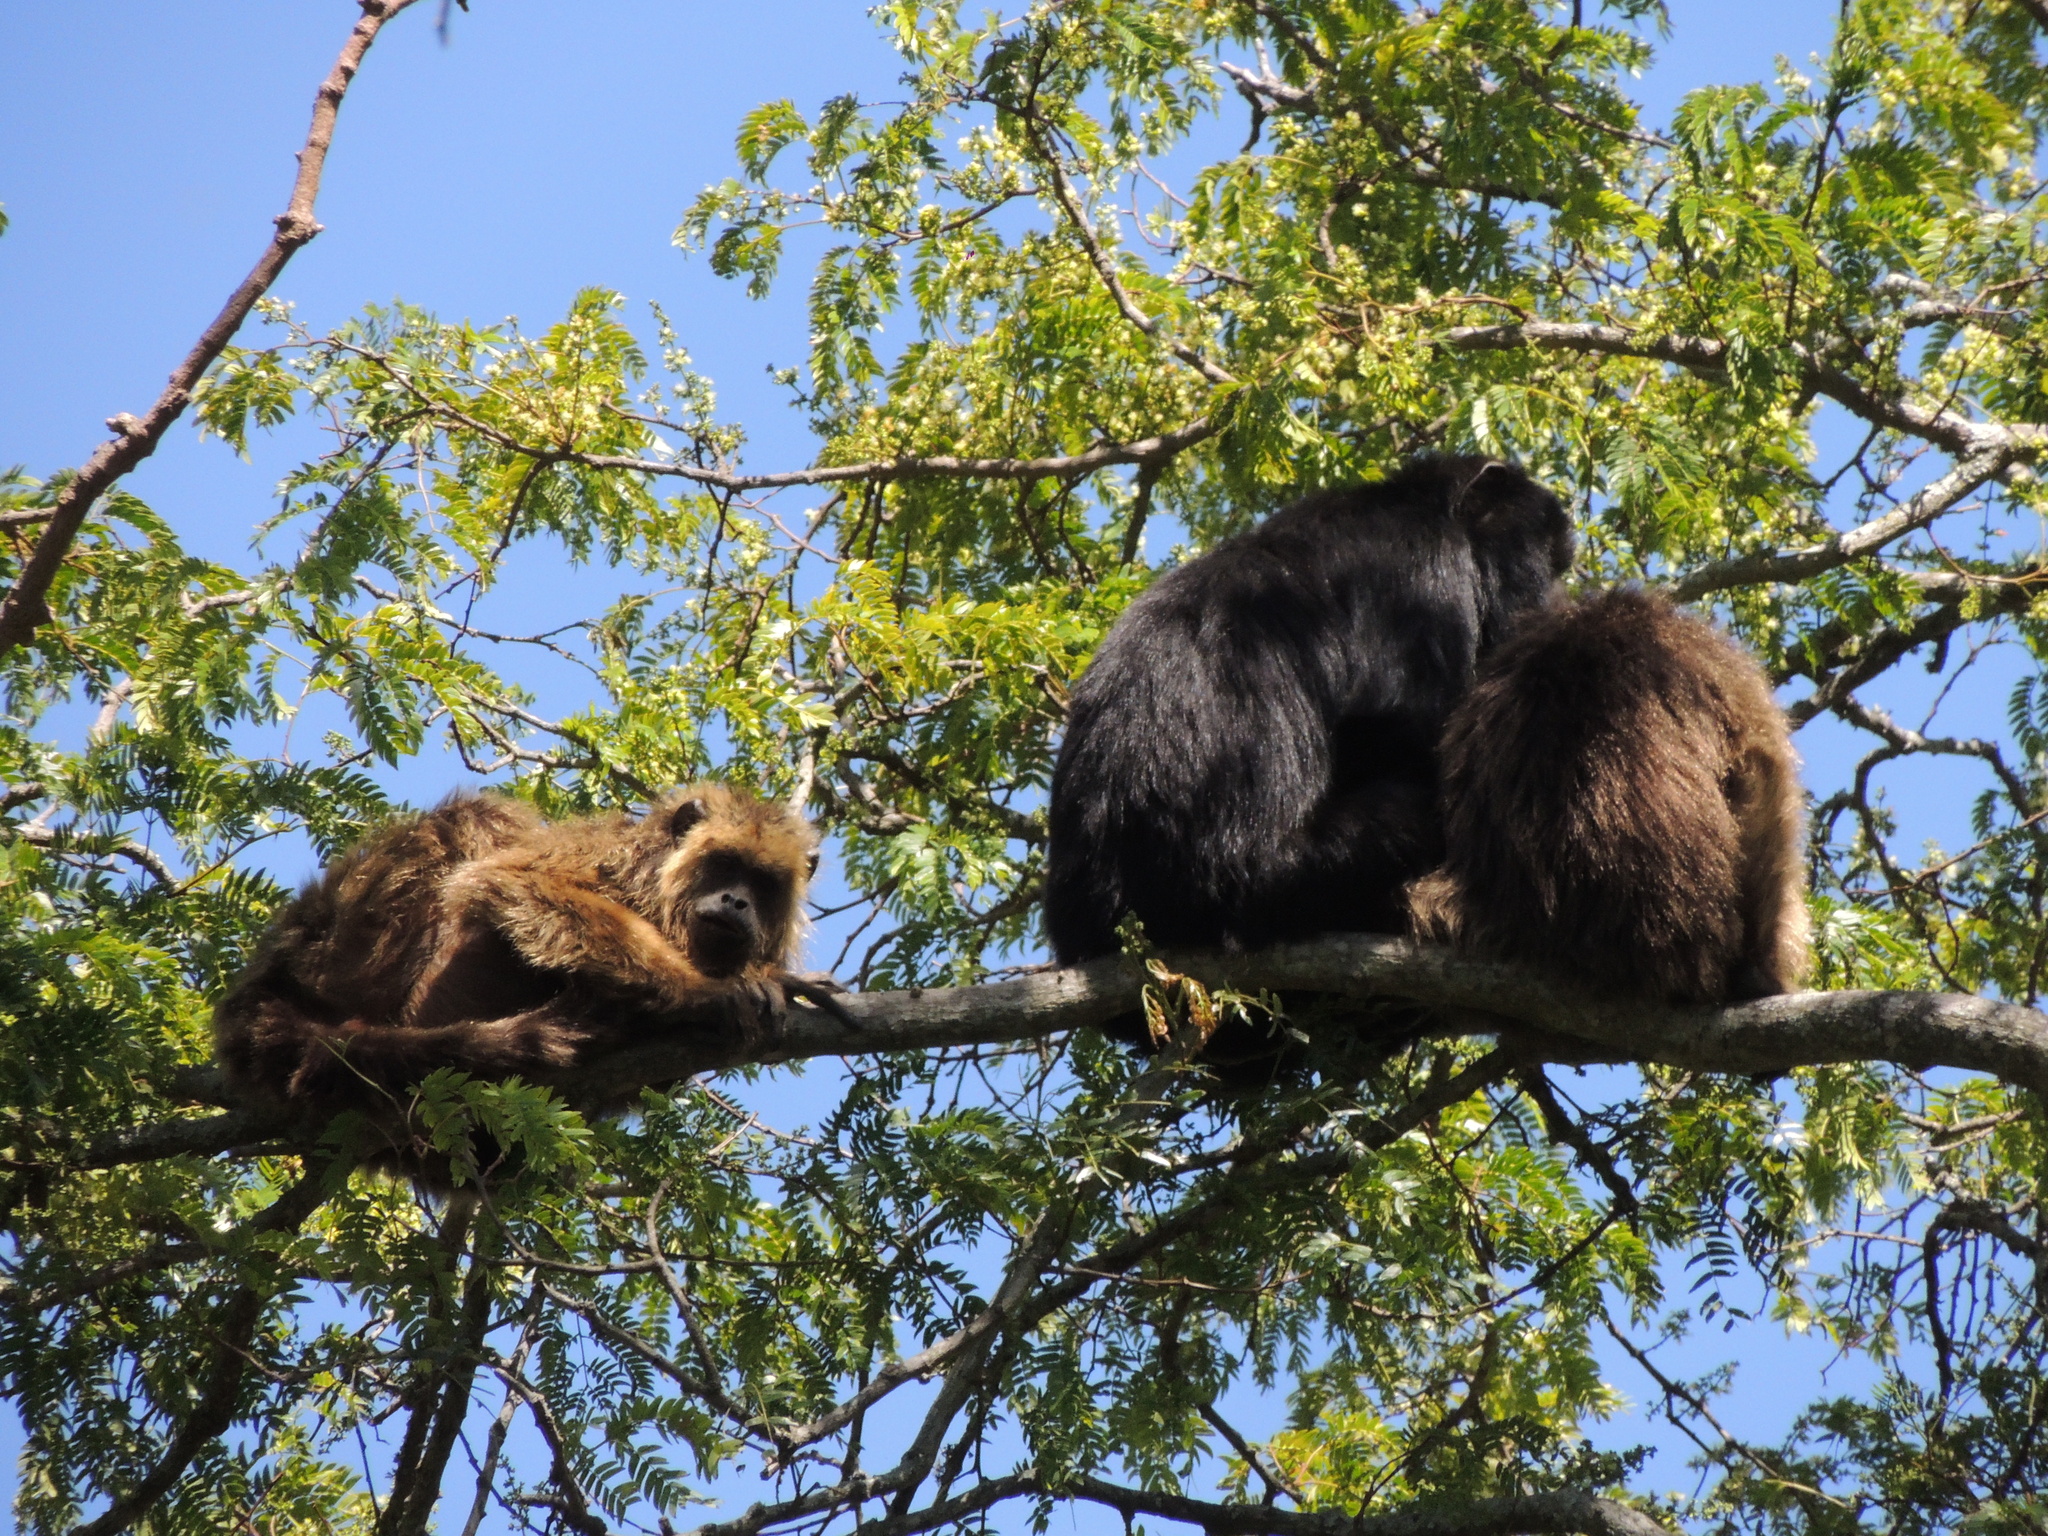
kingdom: Animalia
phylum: Chordata
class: Mammalia
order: Primates
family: Atelidae
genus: Alouatta
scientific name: Alouatta caraya
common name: Black howler
